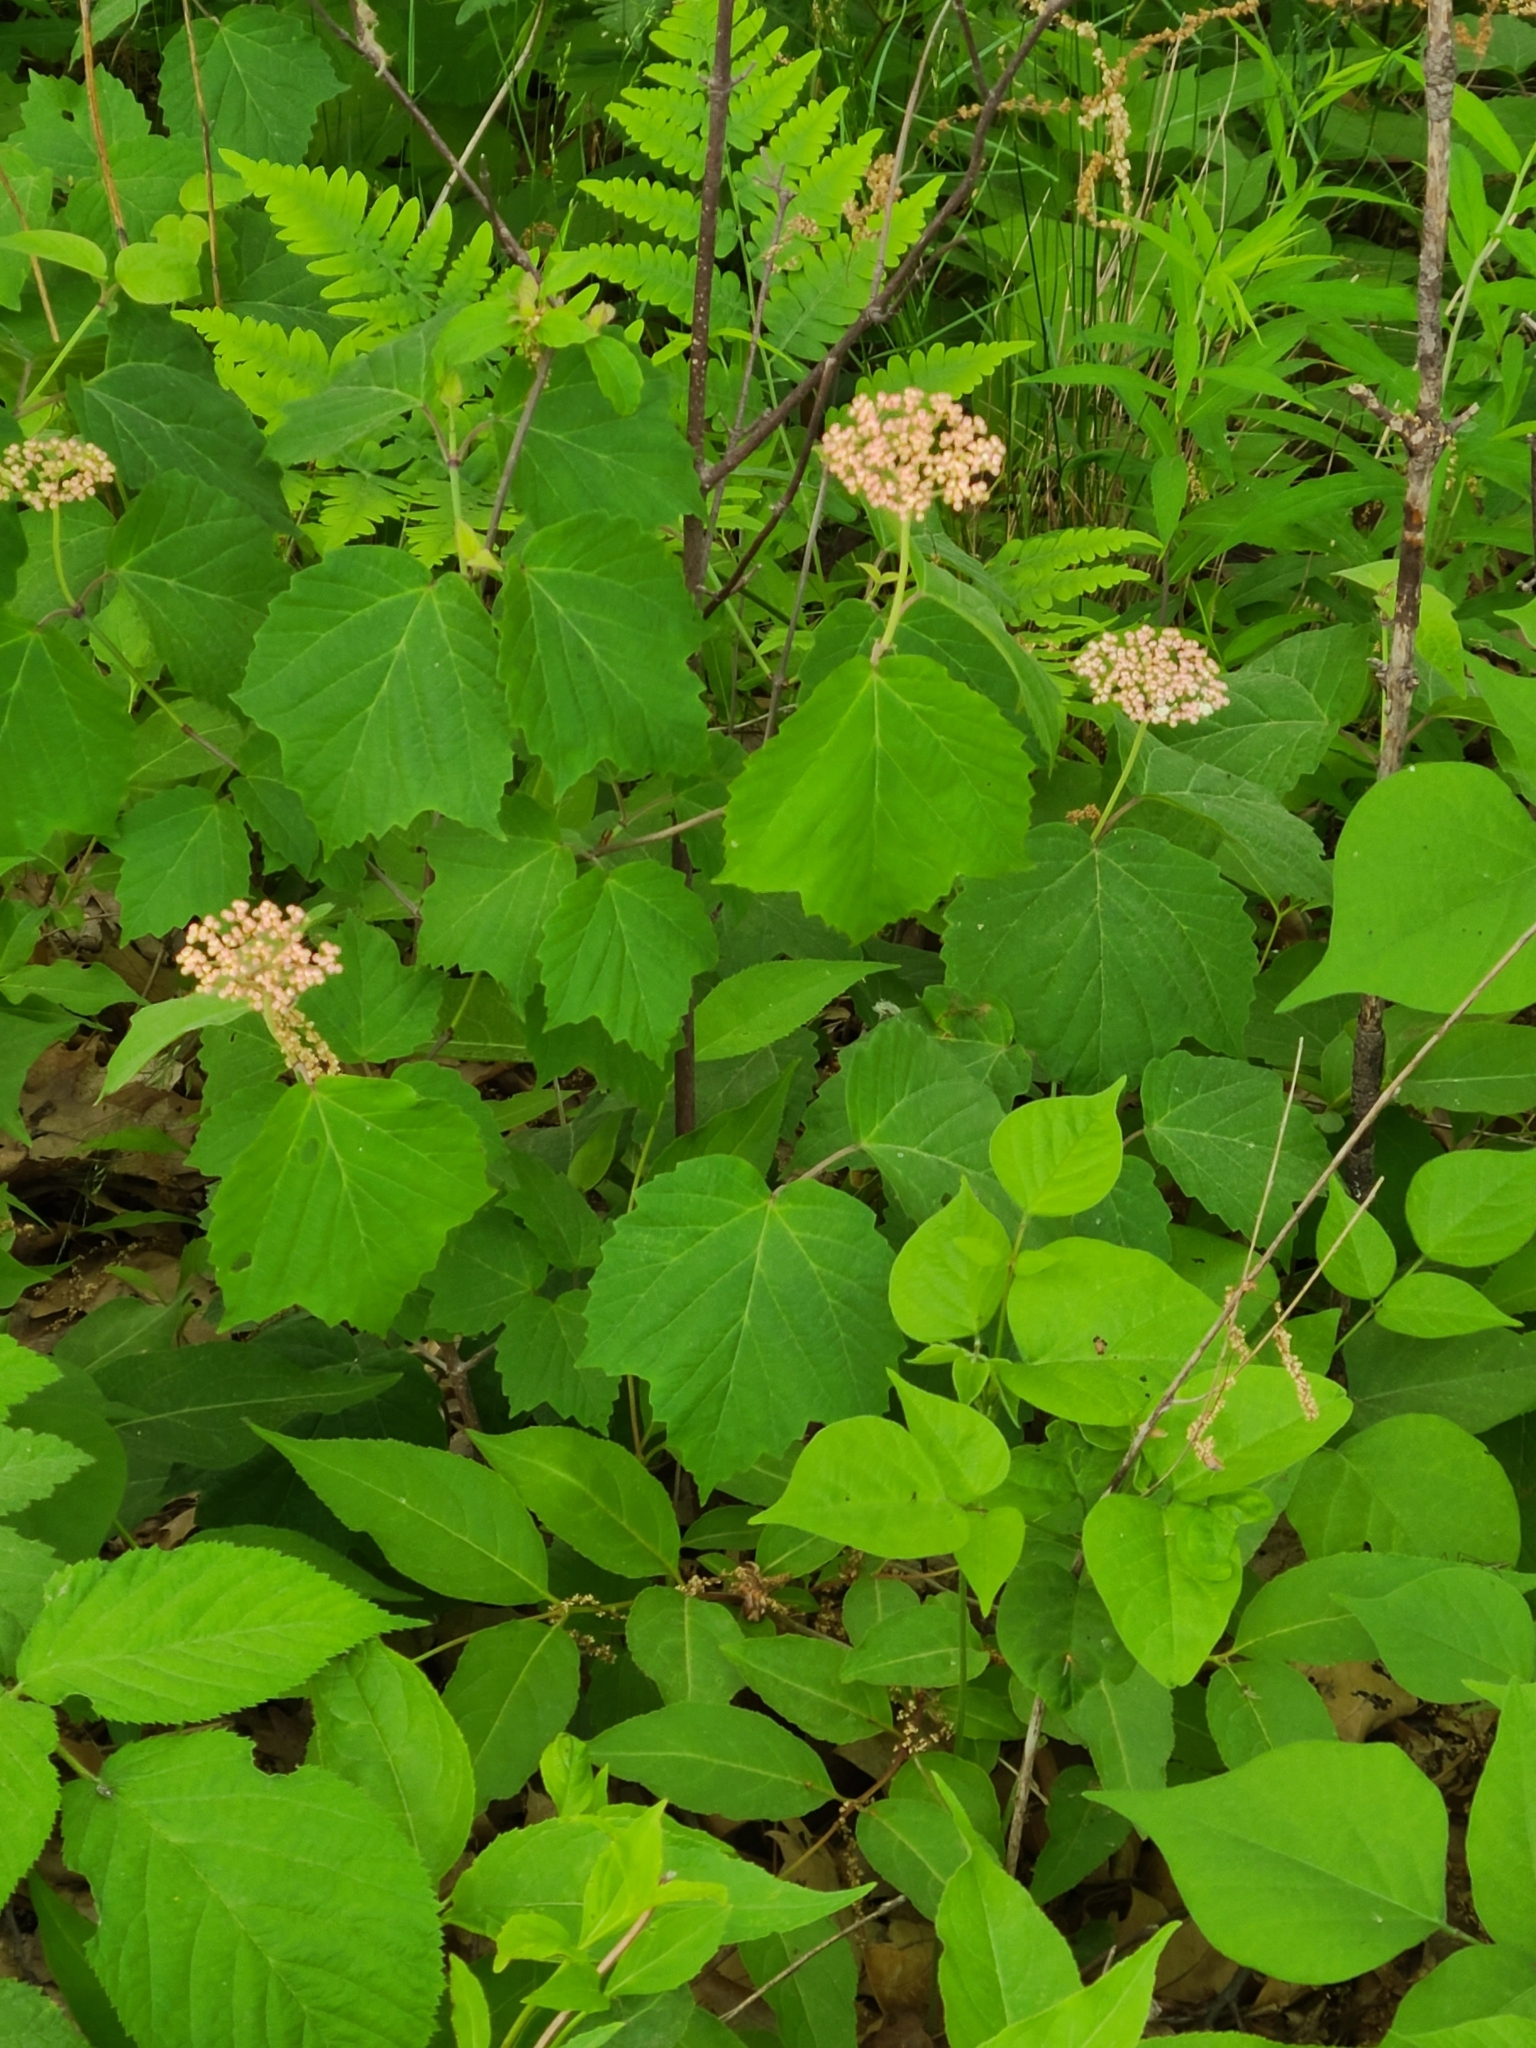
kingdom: Plantae
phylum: Tracheophyta
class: Magnoliopsida
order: Dipsacales
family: Viburnaceae
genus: Viburnum
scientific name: Viburnum acerifolium
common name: Dockmackie
